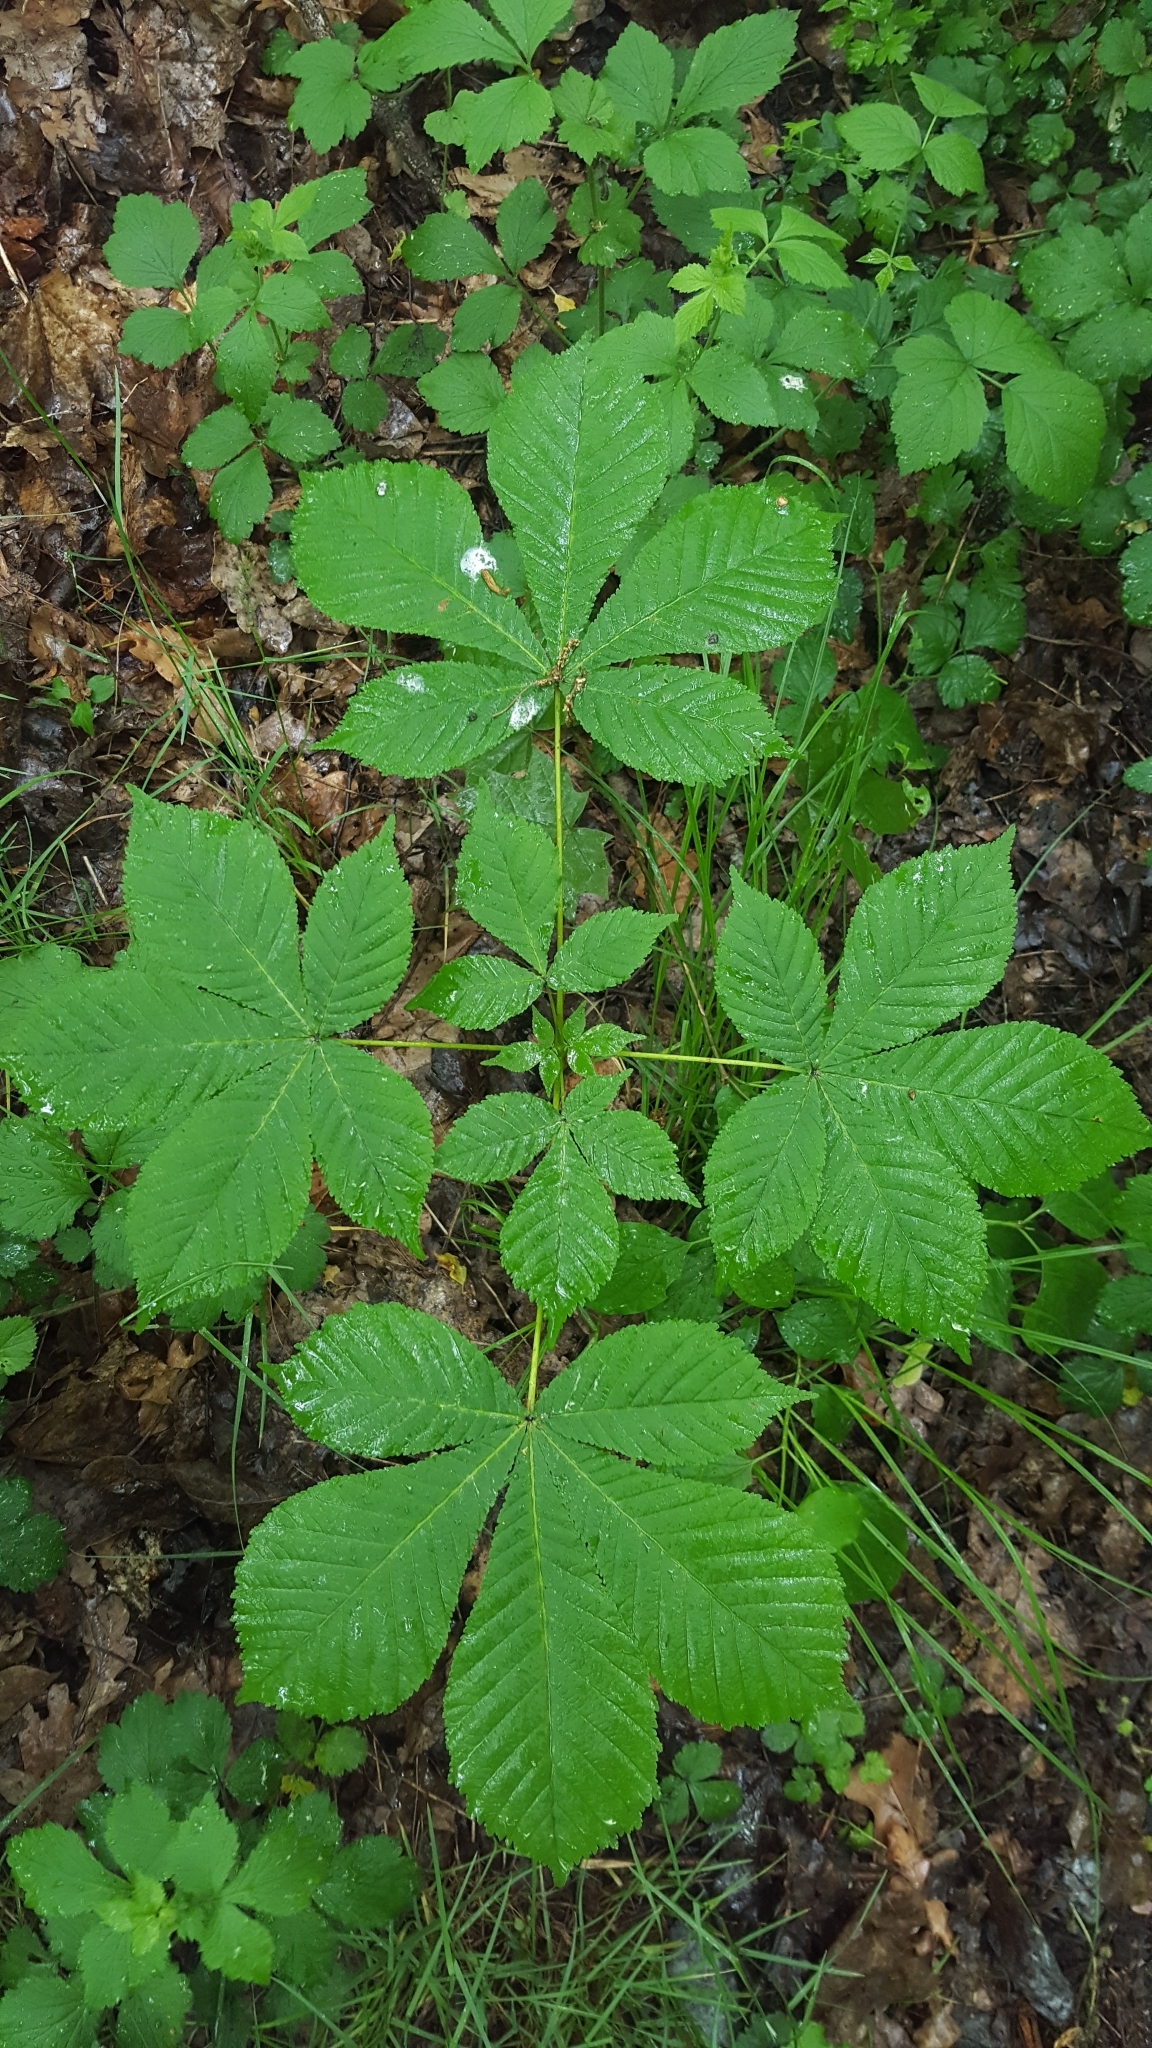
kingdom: Plantae
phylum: Tracheophyta
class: Magnoliopsida
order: Sapindales
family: Sapindaceae
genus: Aesculus
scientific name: Aesculus hippocastanum
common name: Horse-chestnut
